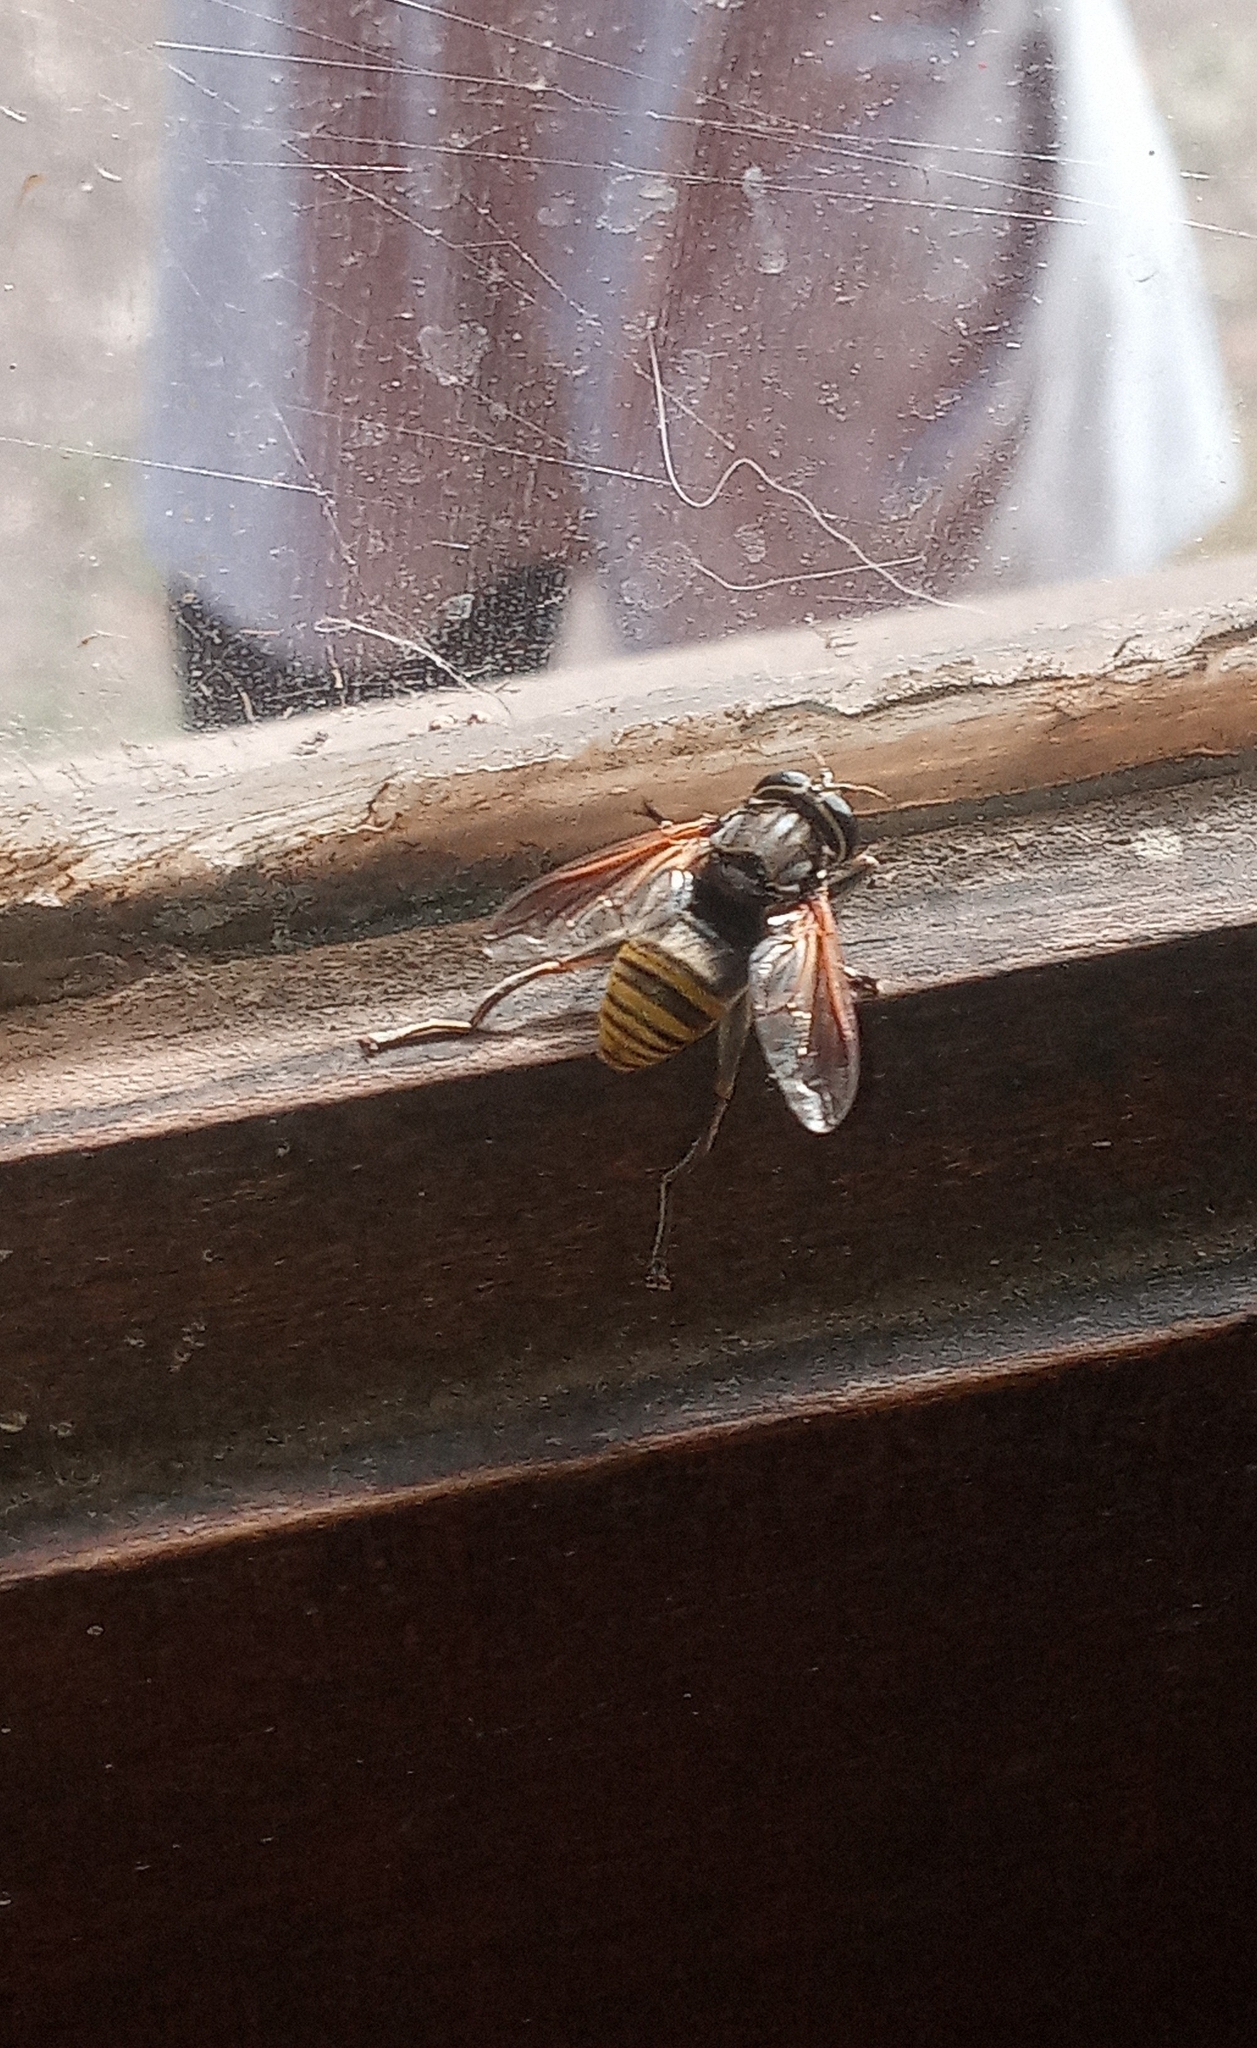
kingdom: Animalia
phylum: Arthropoda
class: Insecta
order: Diptera
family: Syrphidae
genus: Meromacrus
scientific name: Meromacrus nectarinoides
